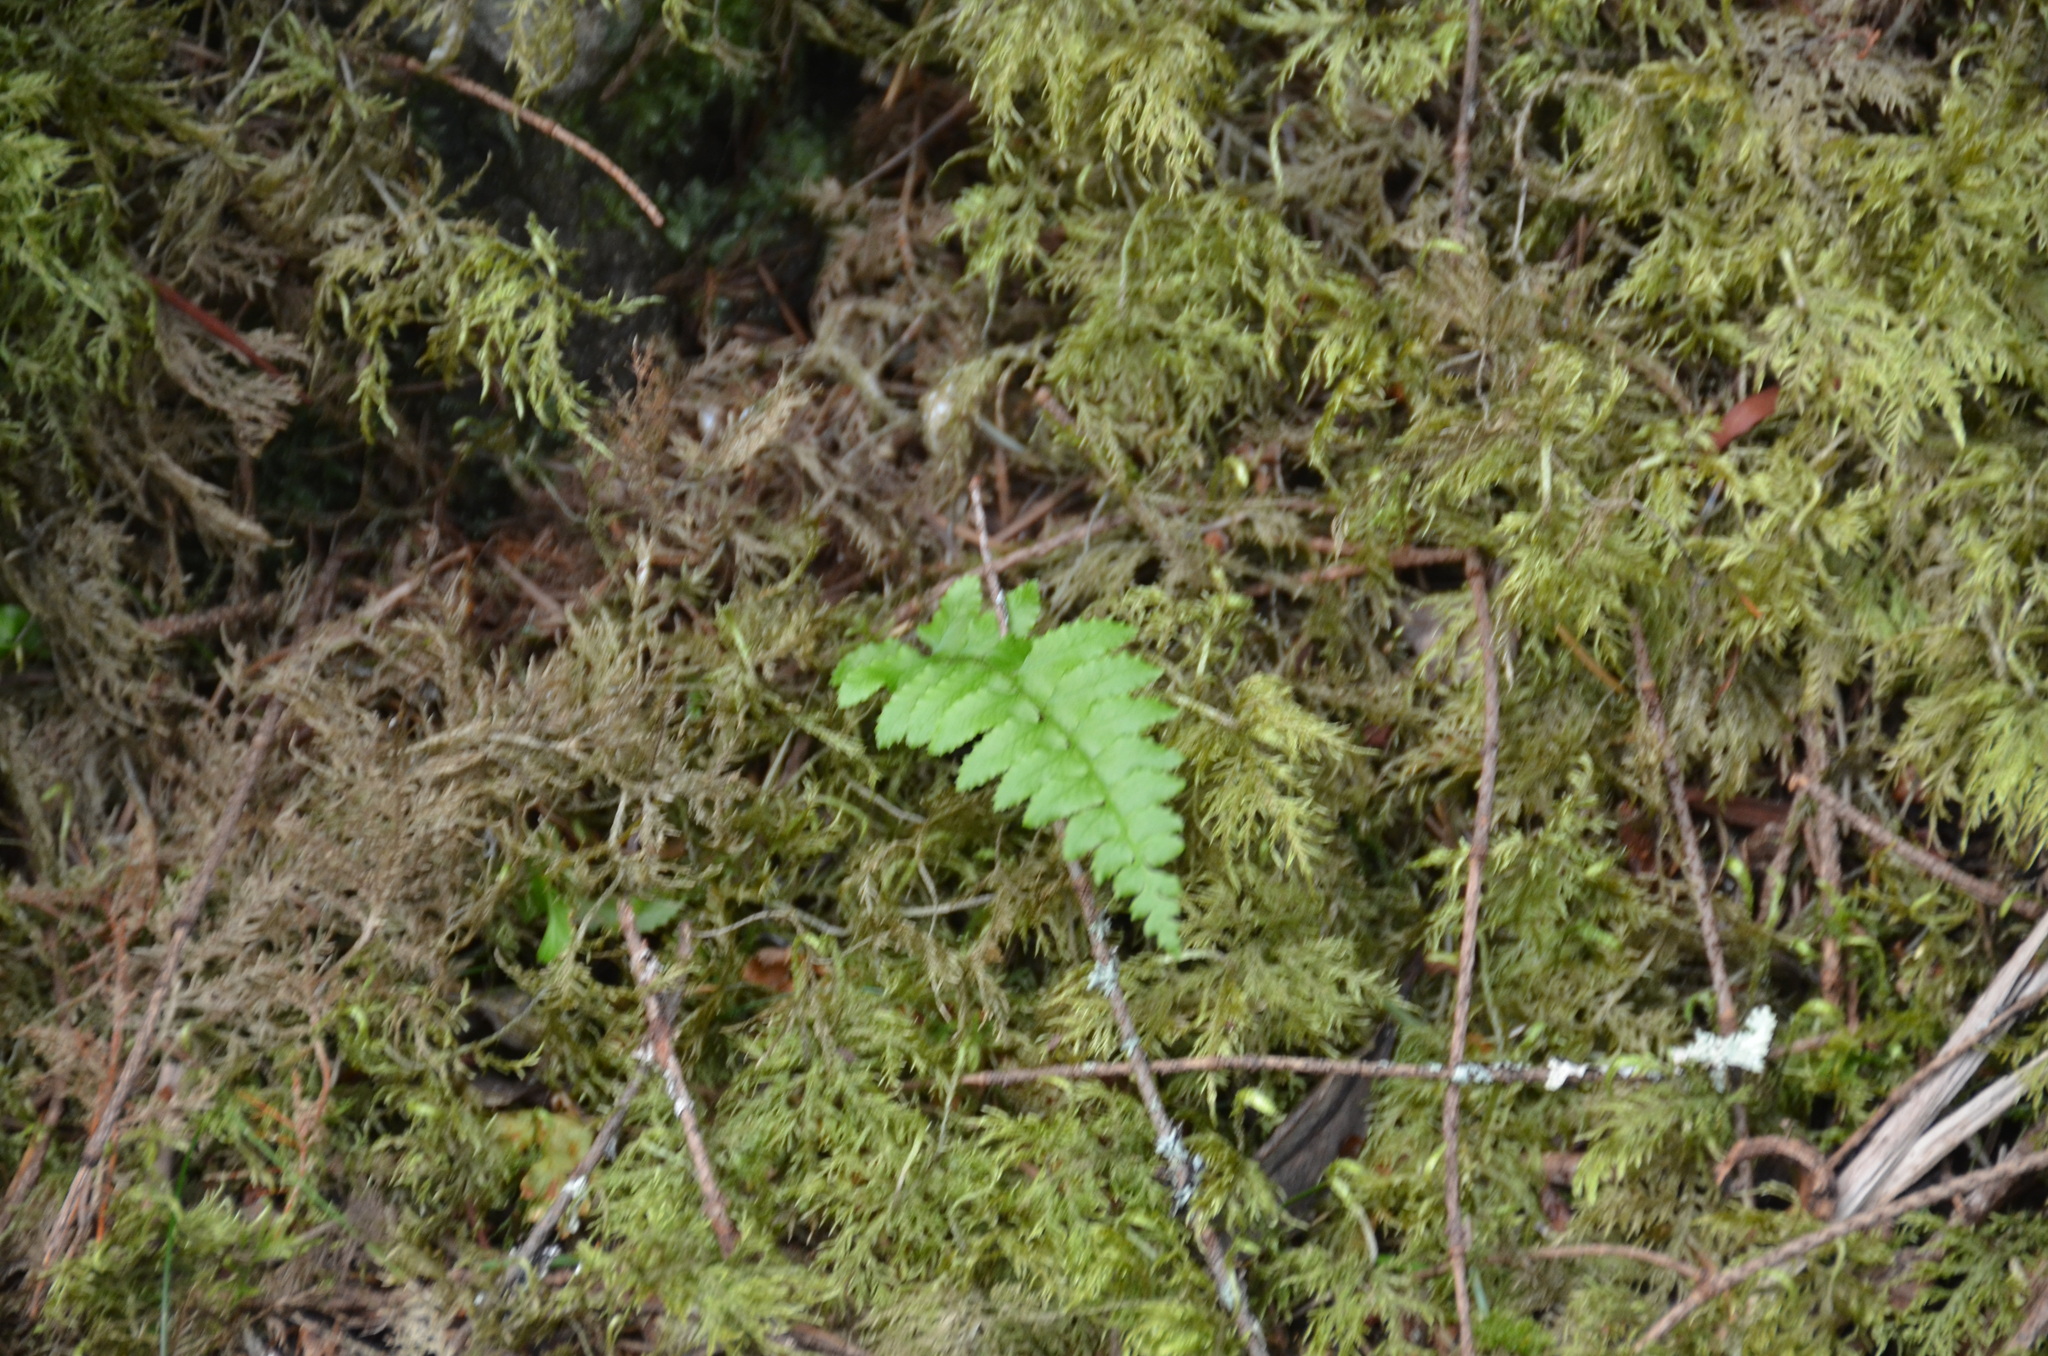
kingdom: Plantae
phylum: Tracheophyta
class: Polypodiopsida
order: Polypodiales
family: Polypodiaceae
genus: Polypodium
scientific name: Polypodium glycyrrhiza
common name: Licorice fern
